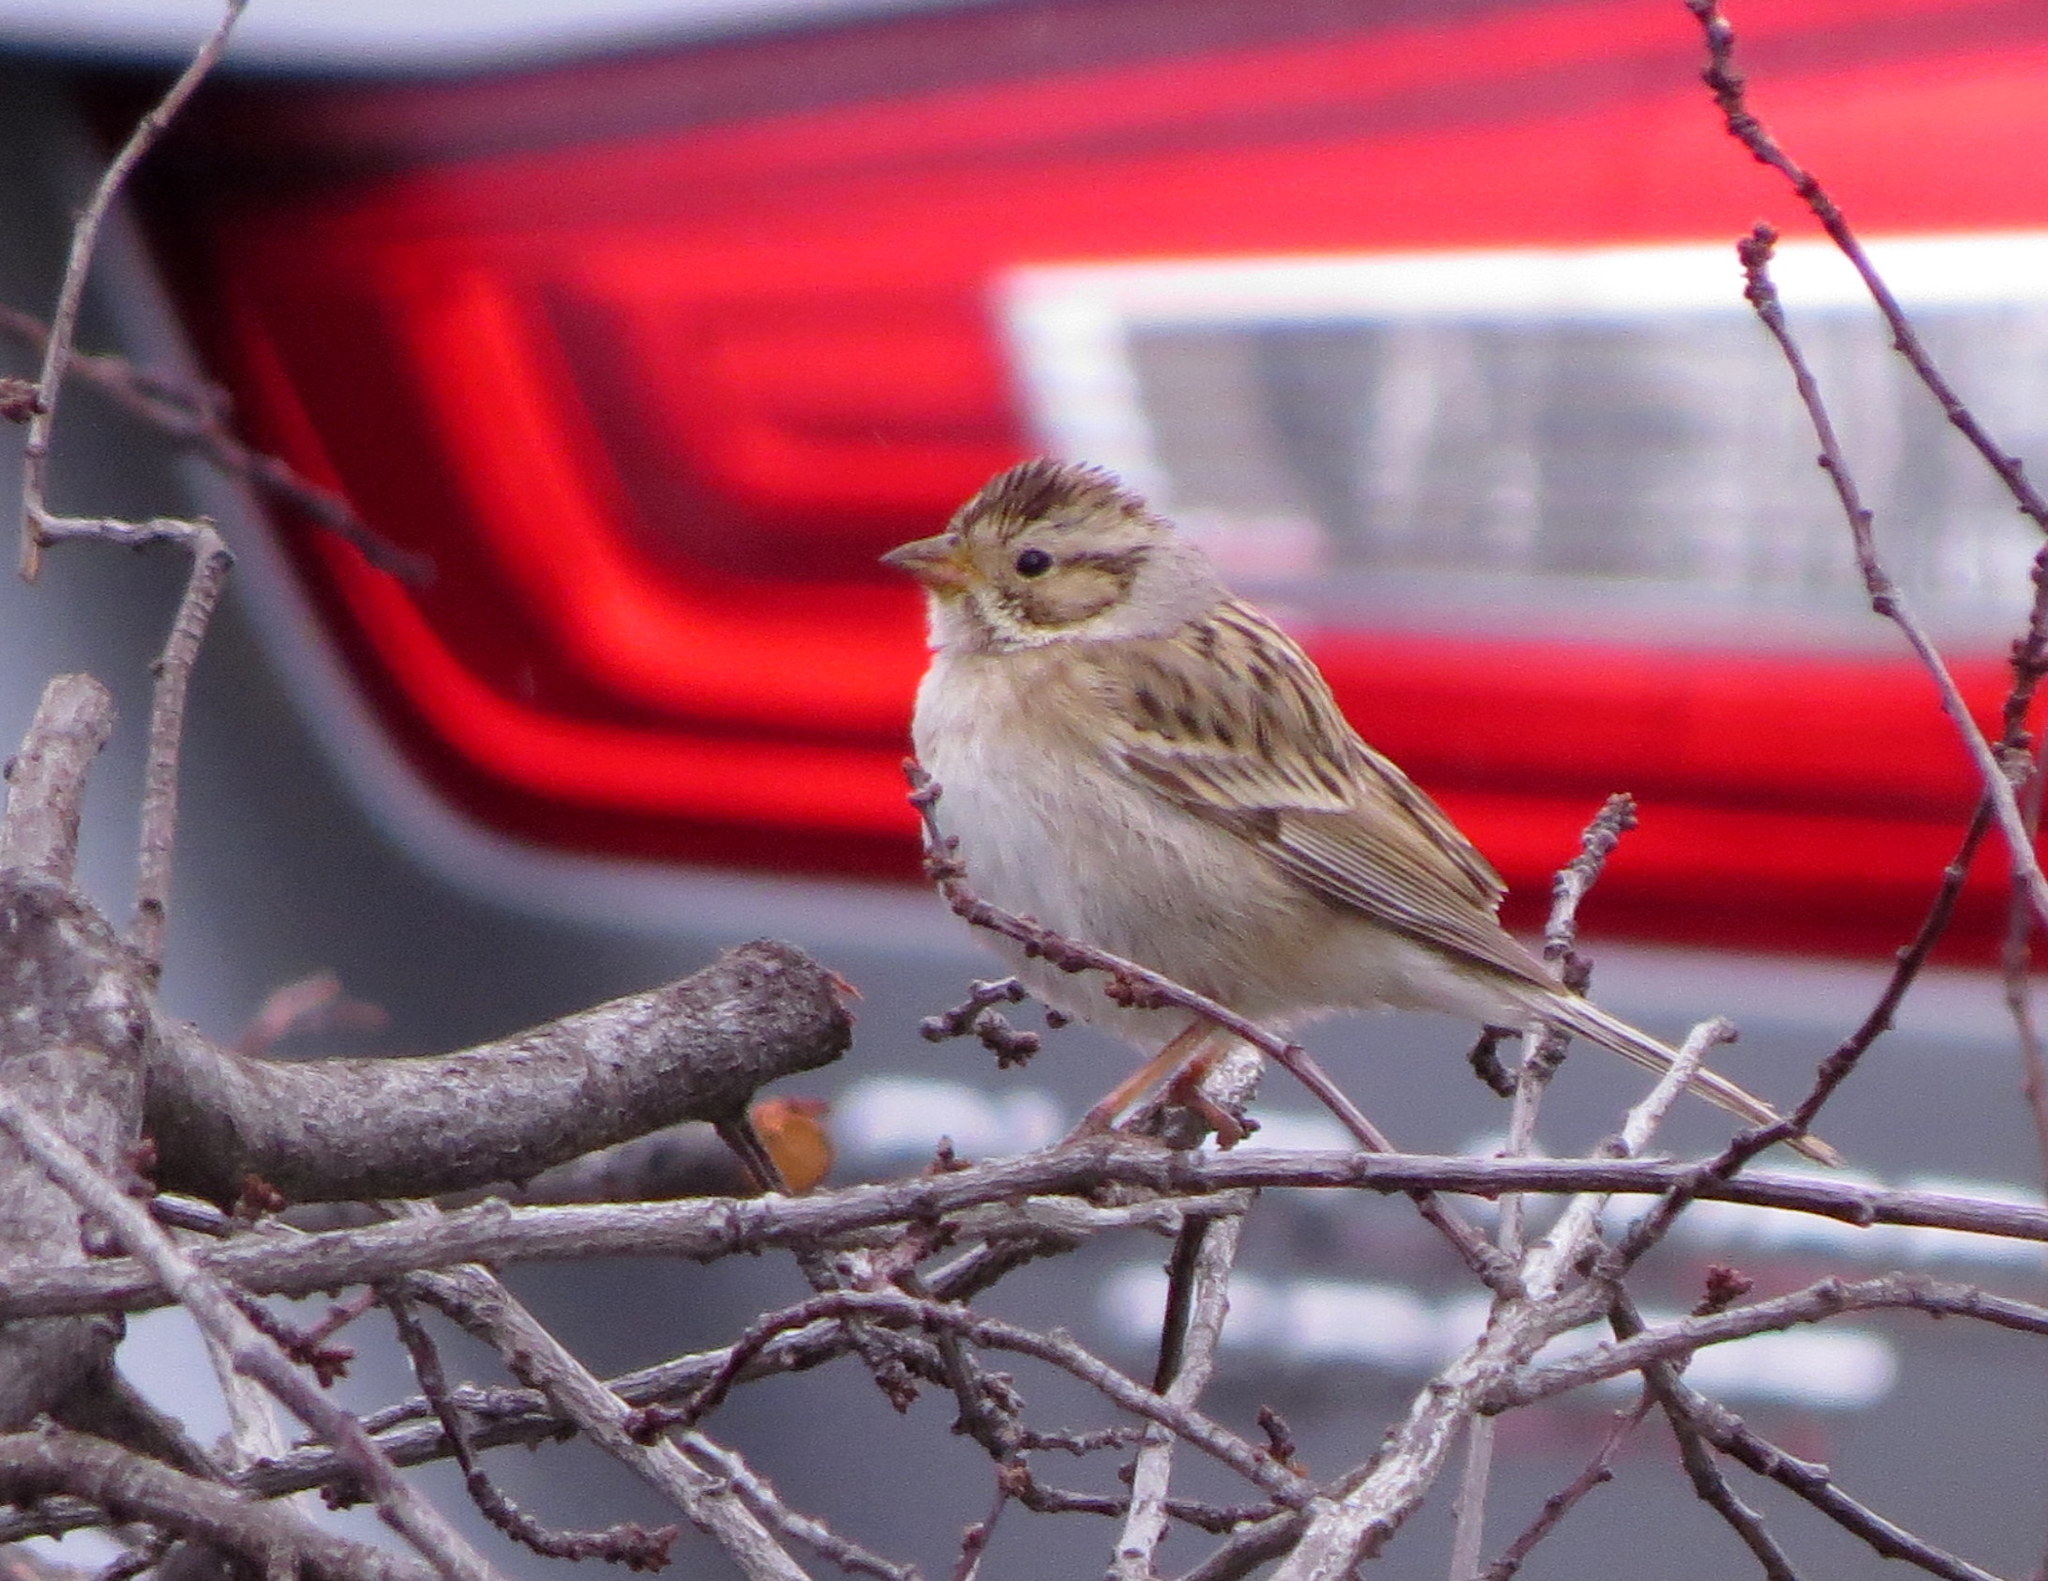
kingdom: Animalia
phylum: Chordata
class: Aves
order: Passeriformes
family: Passerellidae
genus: Spizella
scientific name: Spizella pallida
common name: Clay-colored sparrow
